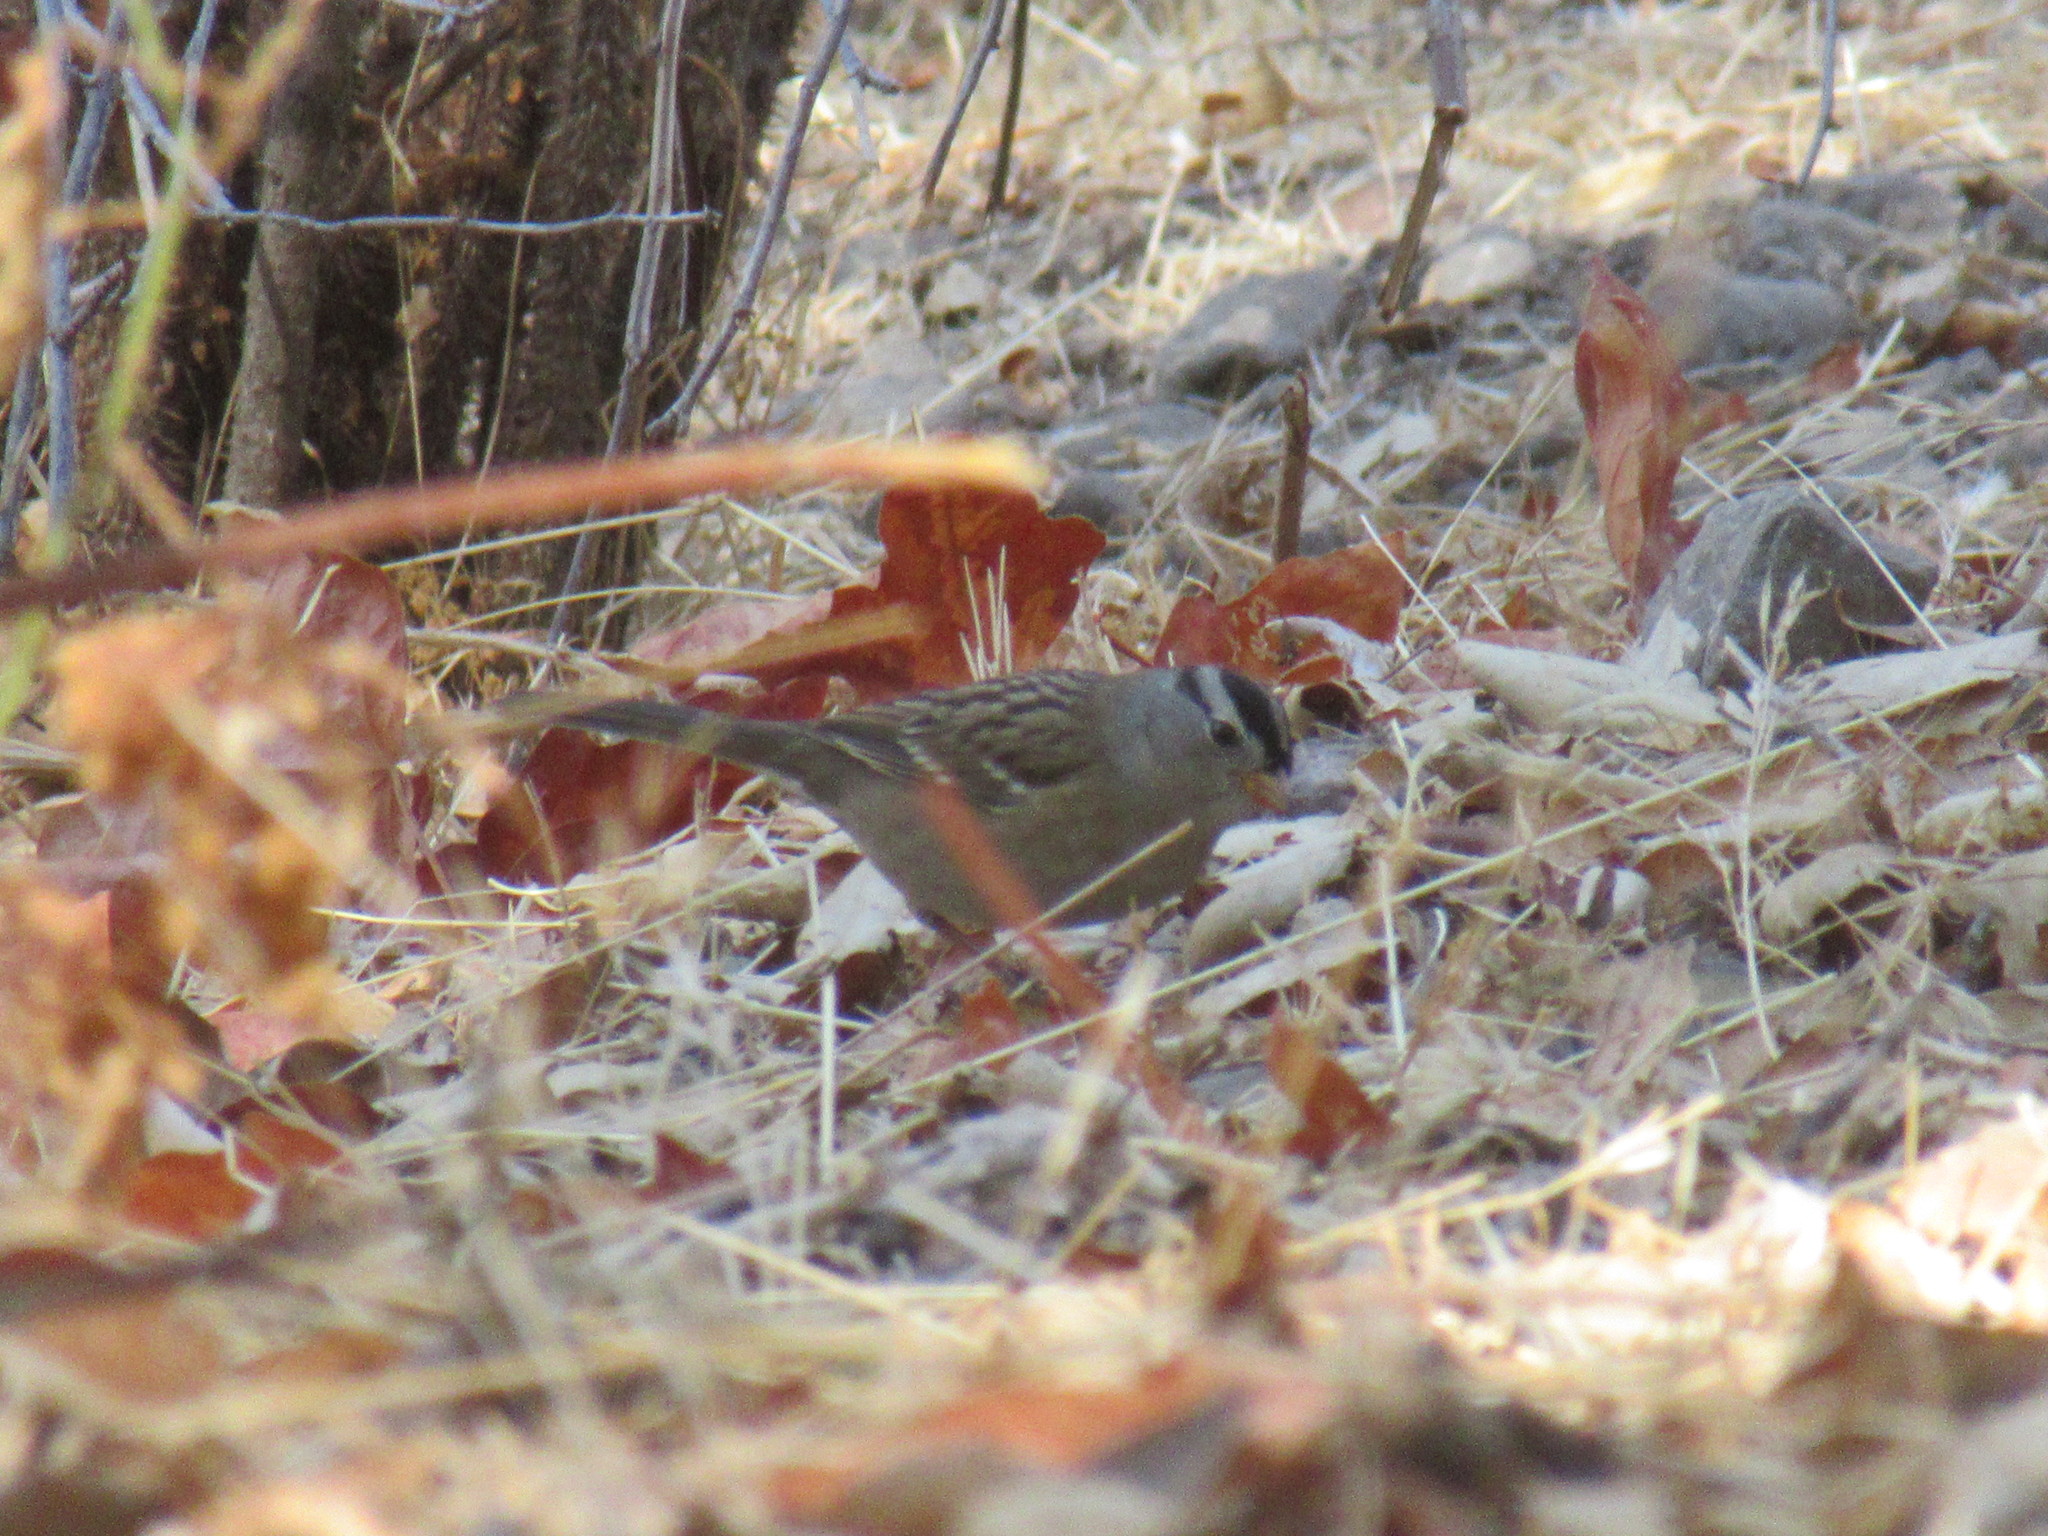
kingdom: Animalia
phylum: Chordata
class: Aves
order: Passeriformes
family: Passerellidae
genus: Zonotrichia
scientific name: Zonotrichia leucophrys
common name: White-crowned sparrow
